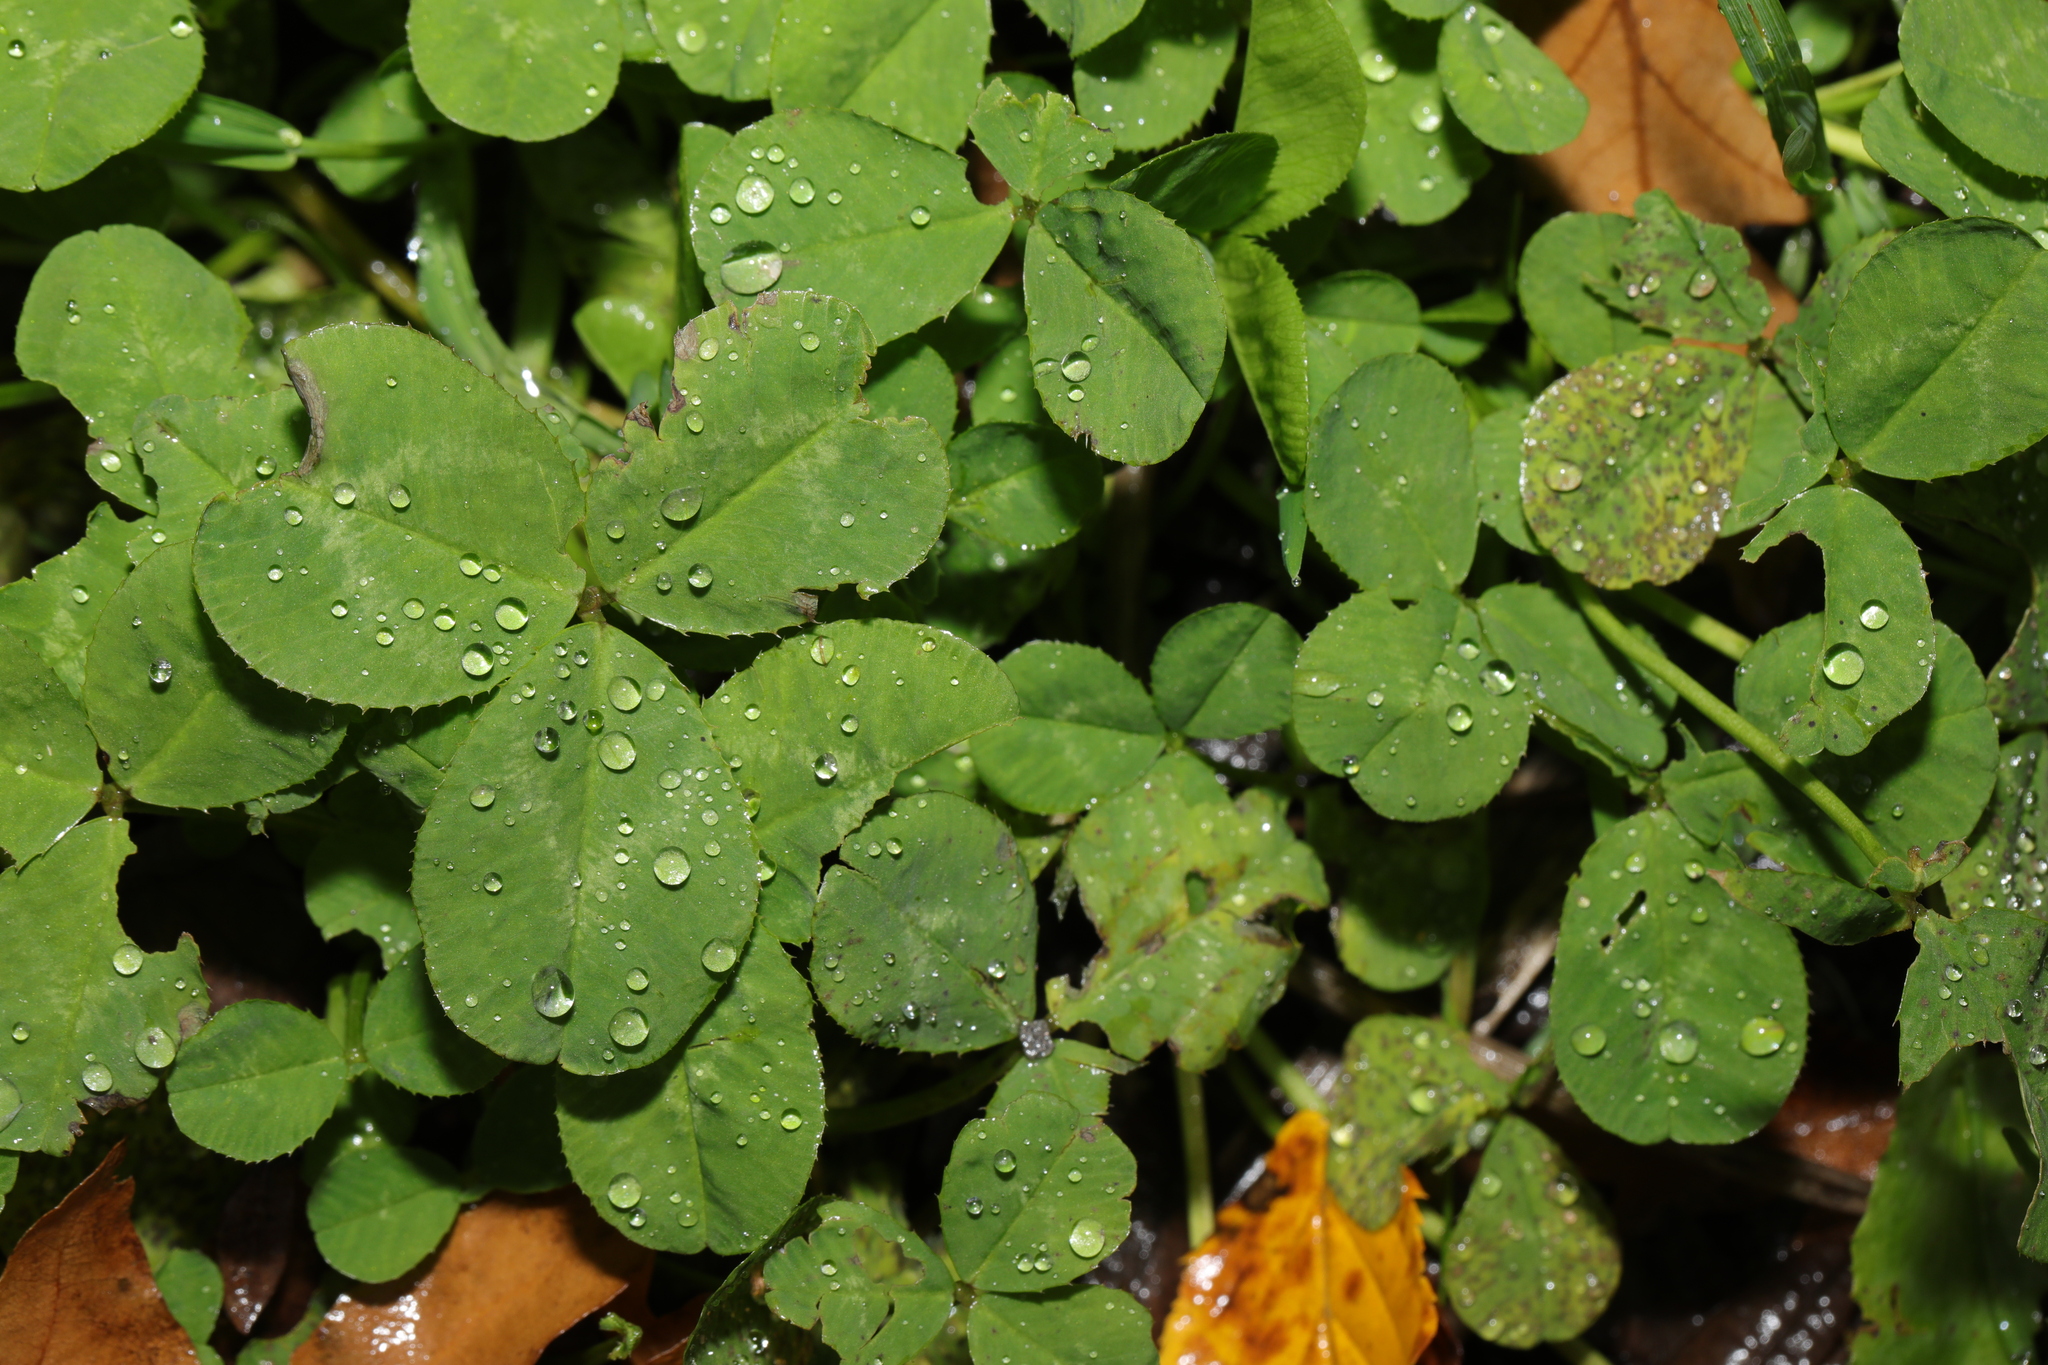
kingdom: Plantae
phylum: Tracheophyta
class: Magnoliopsida
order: Fabales
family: Fabaceae
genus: Trifolium
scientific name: Trifolium repens
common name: White clover
